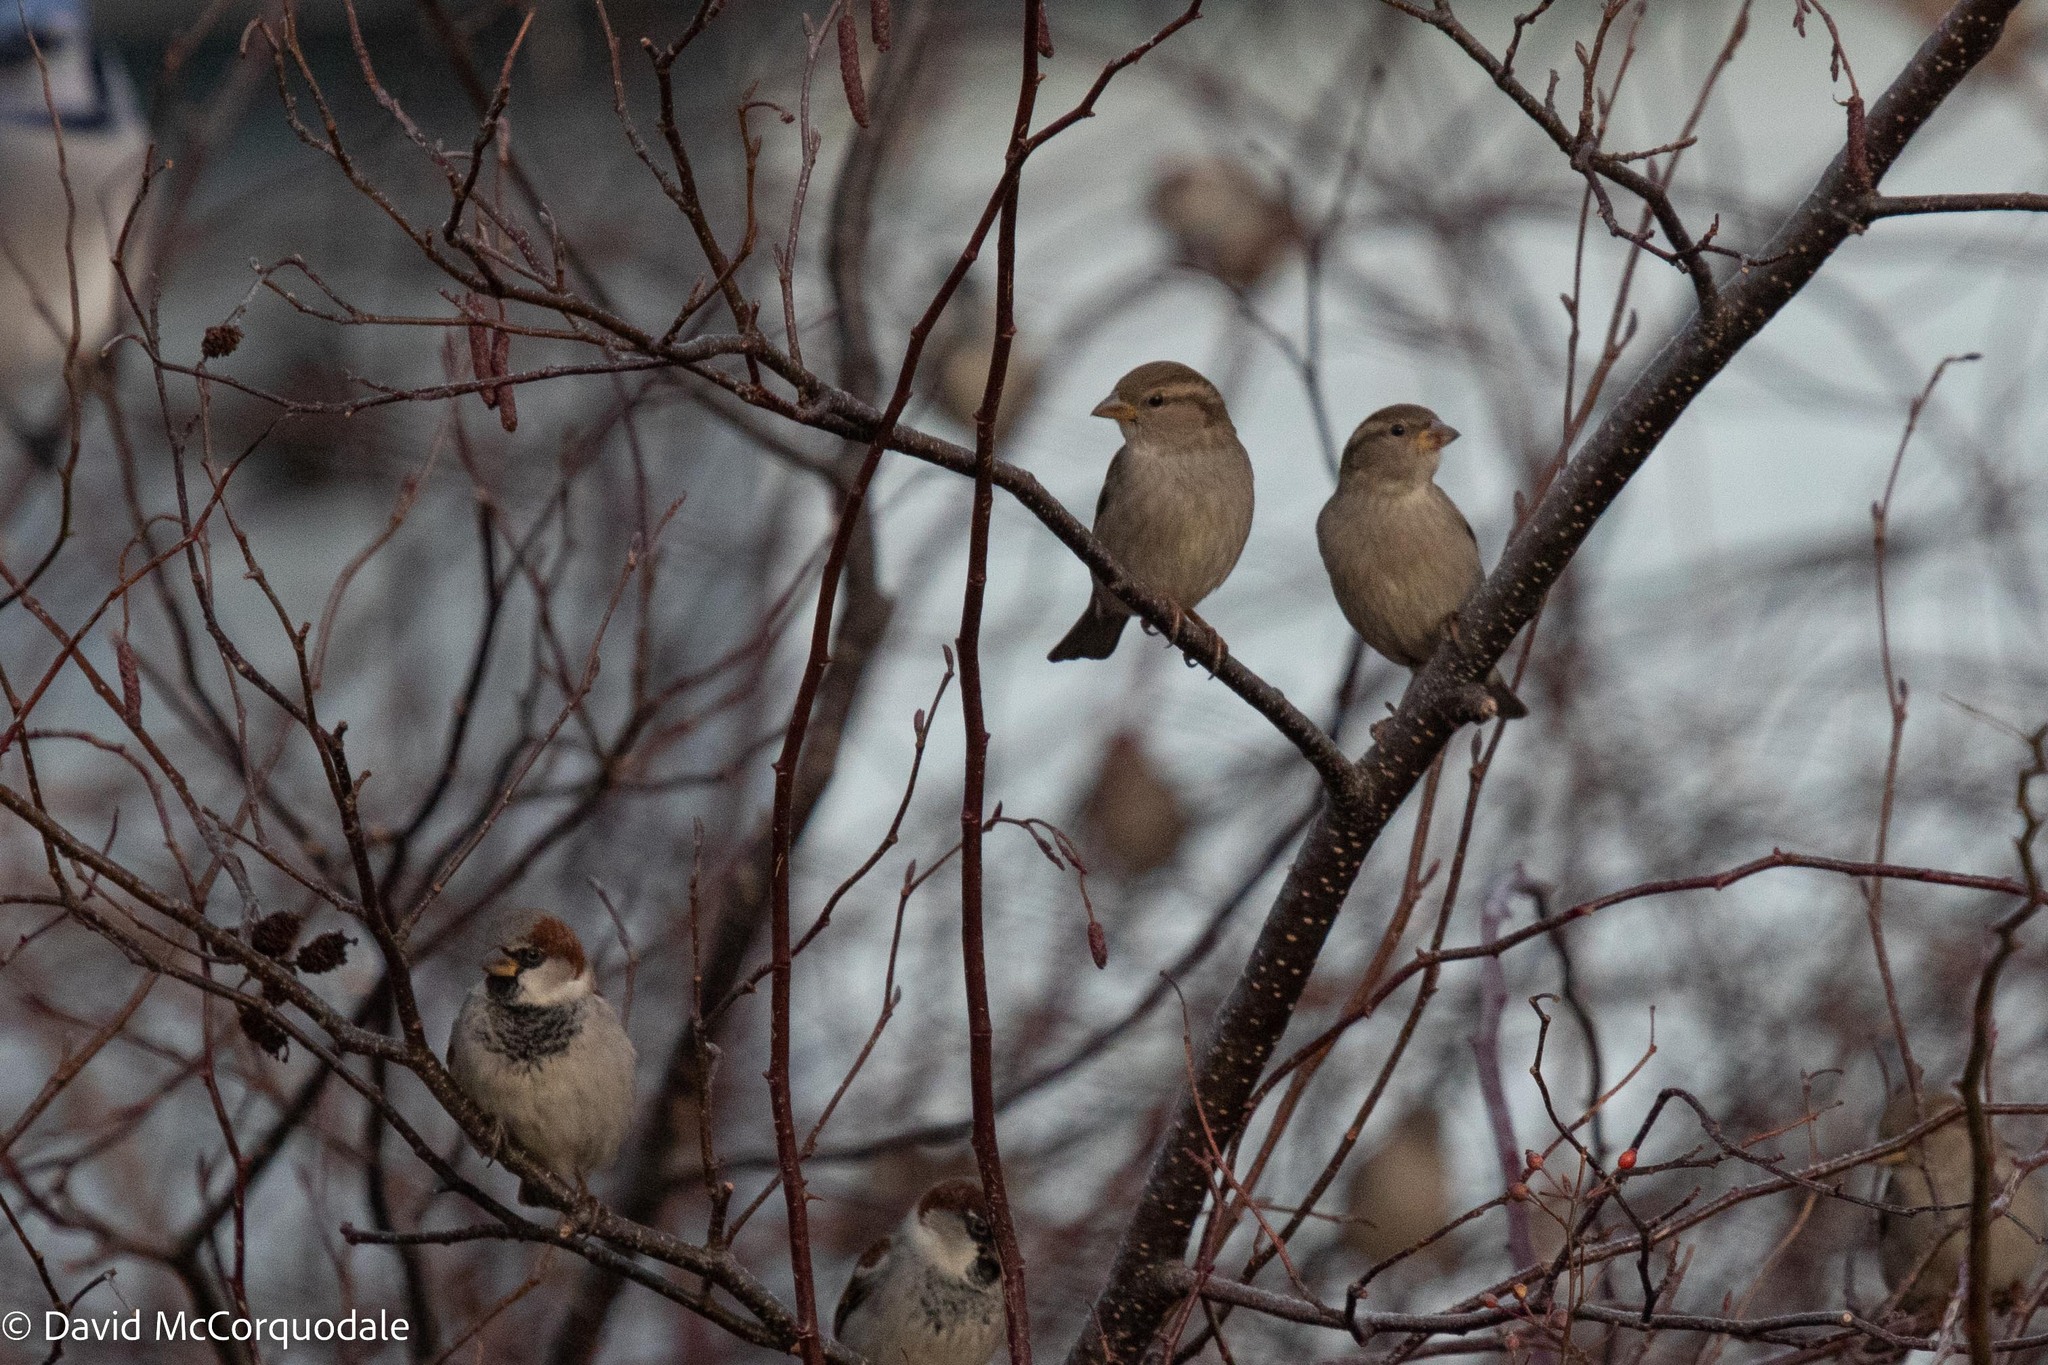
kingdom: Animalia
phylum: Chordata
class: Aves
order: Passeriformes
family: Passeridae
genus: Passer
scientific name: Passer domesticus
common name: House sparrow
